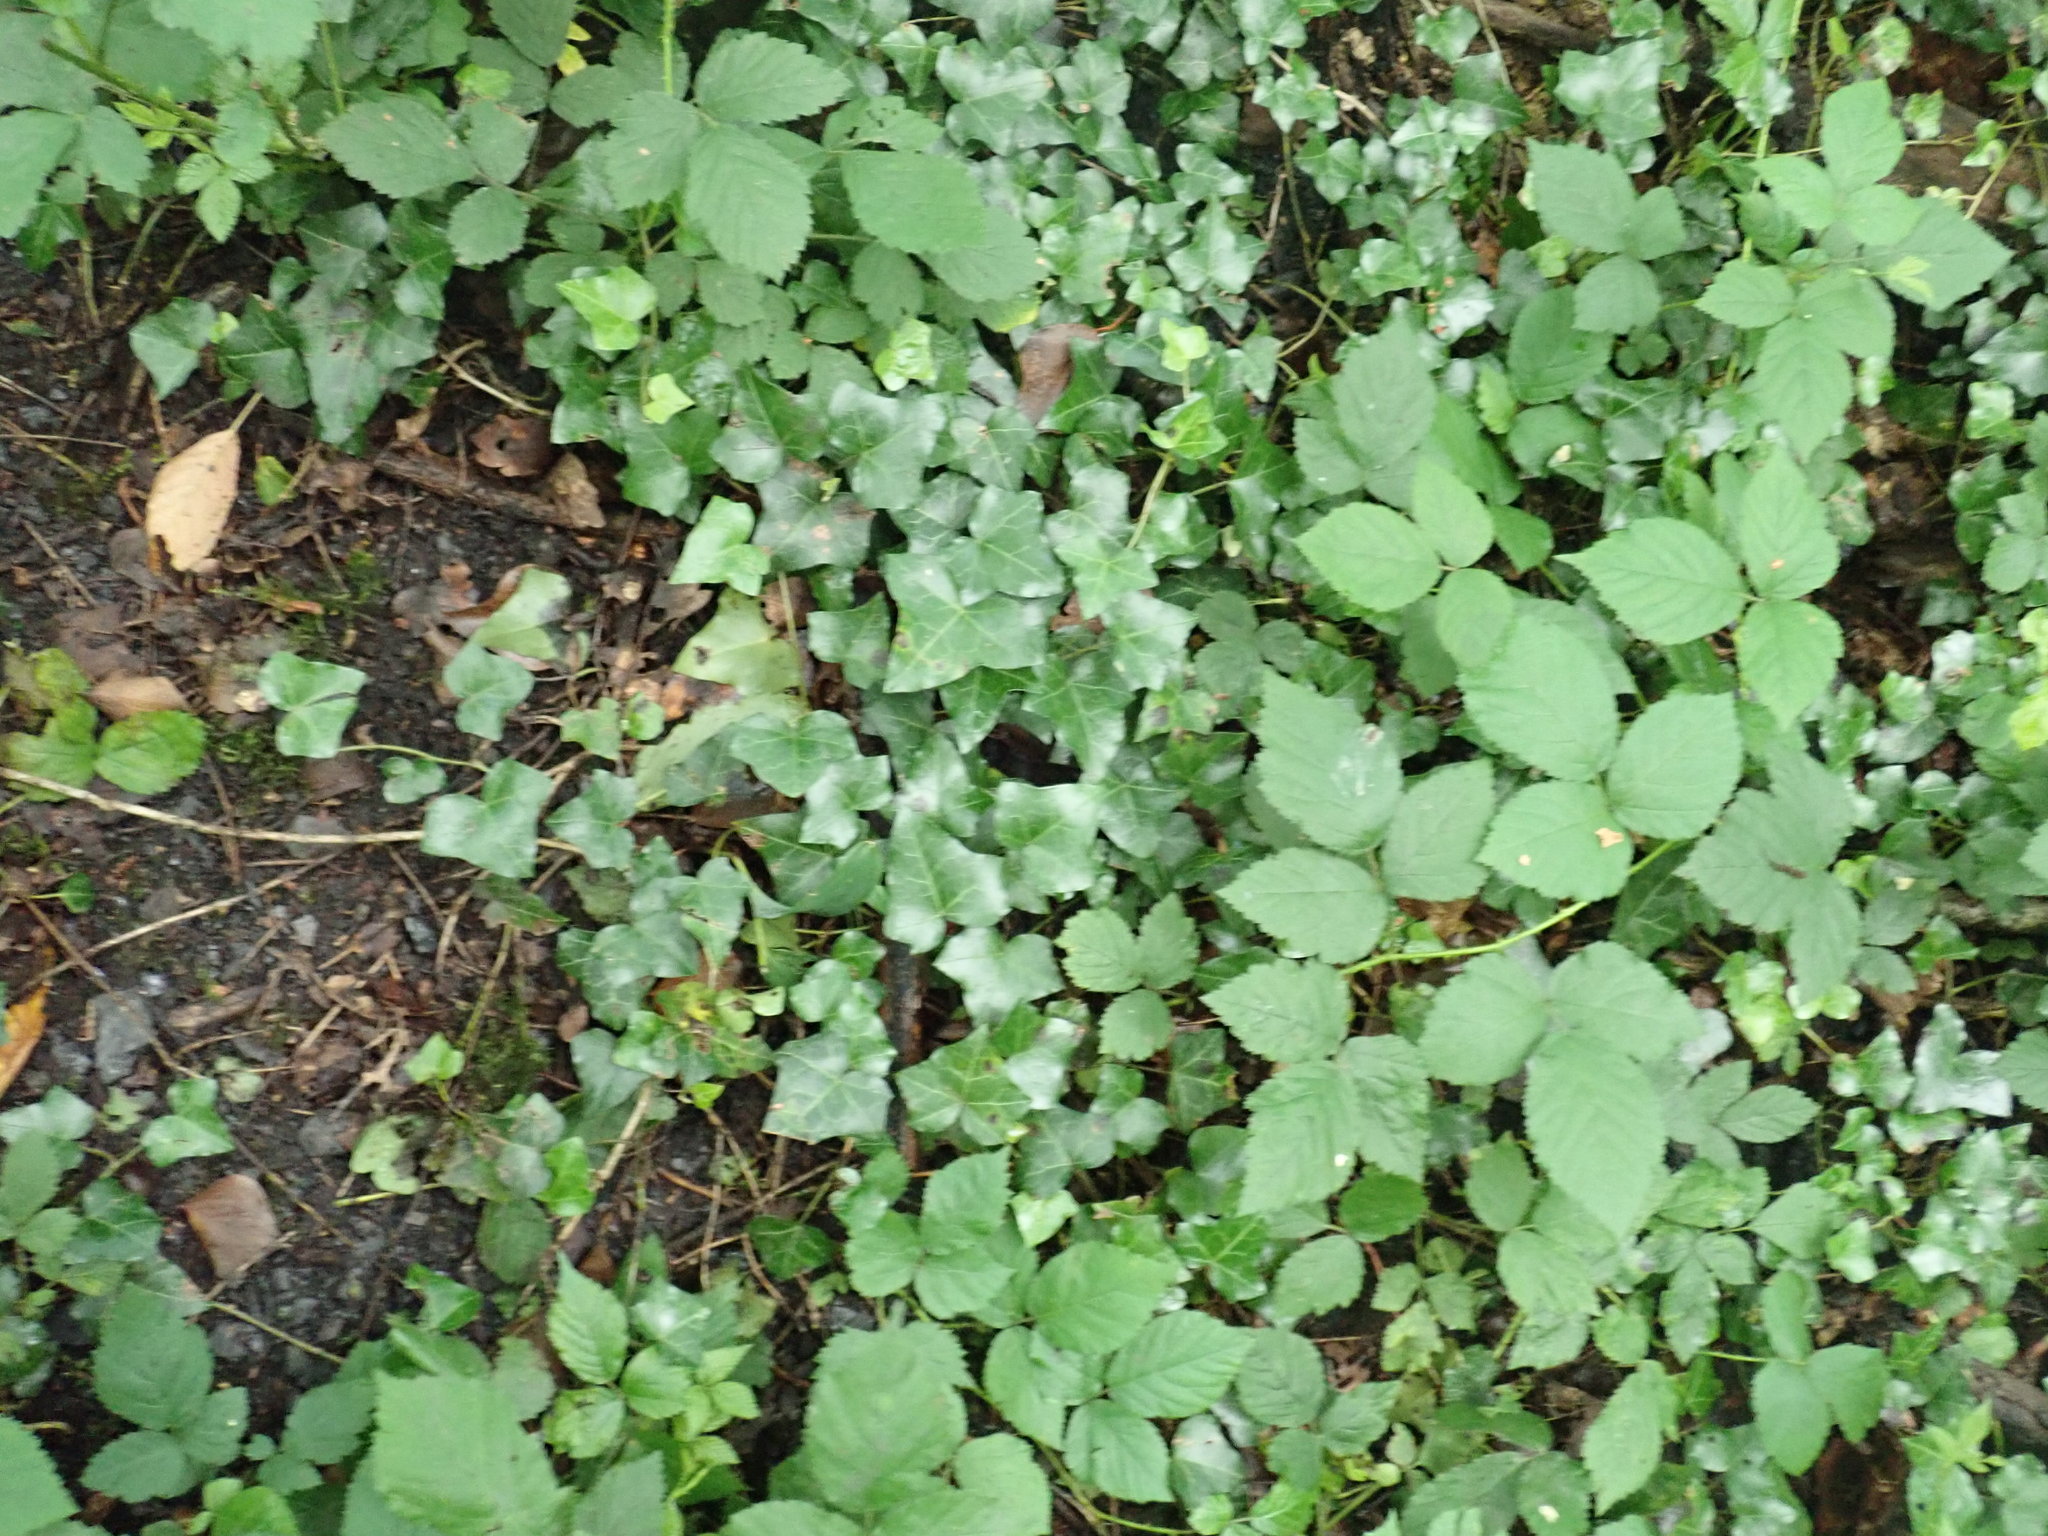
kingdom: Plantae
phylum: Tracheophyta
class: Magnoliopsida
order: Apiales
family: Araliaceae
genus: Hedera
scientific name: Hedera helix
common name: Ivy
